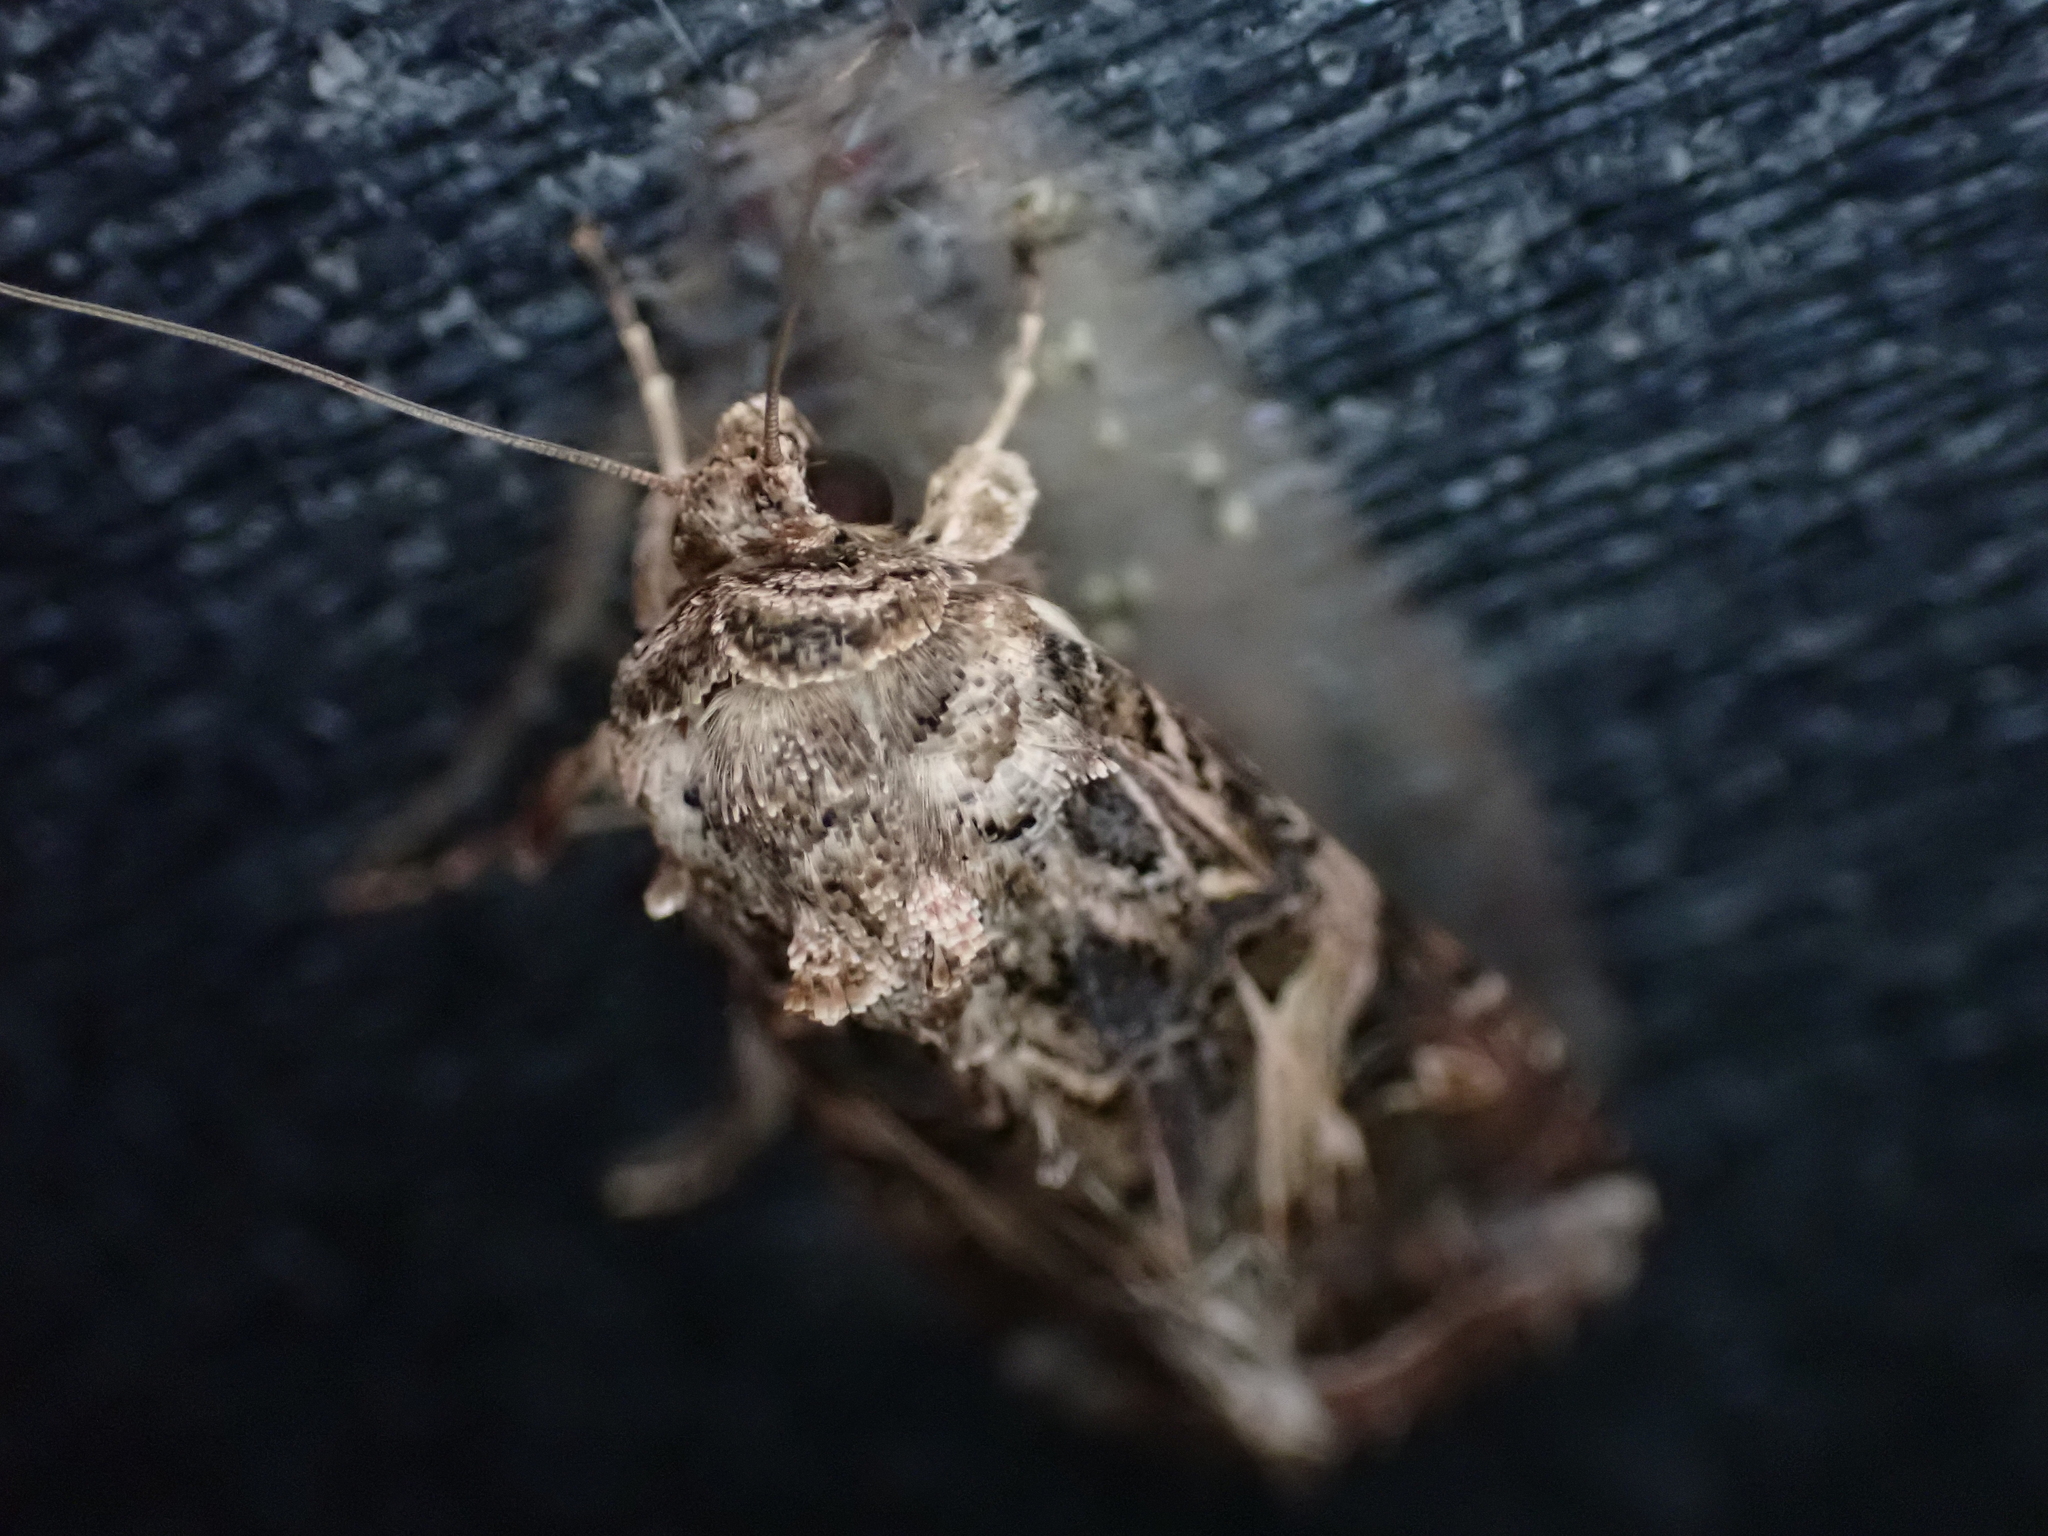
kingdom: Animalia
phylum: Arthropoda
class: Insecta
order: Lepidoptera
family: Noctuidae
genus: Spodoptera
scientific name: Spodoptera ornithogalli
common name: Yellow-striped armyworm
